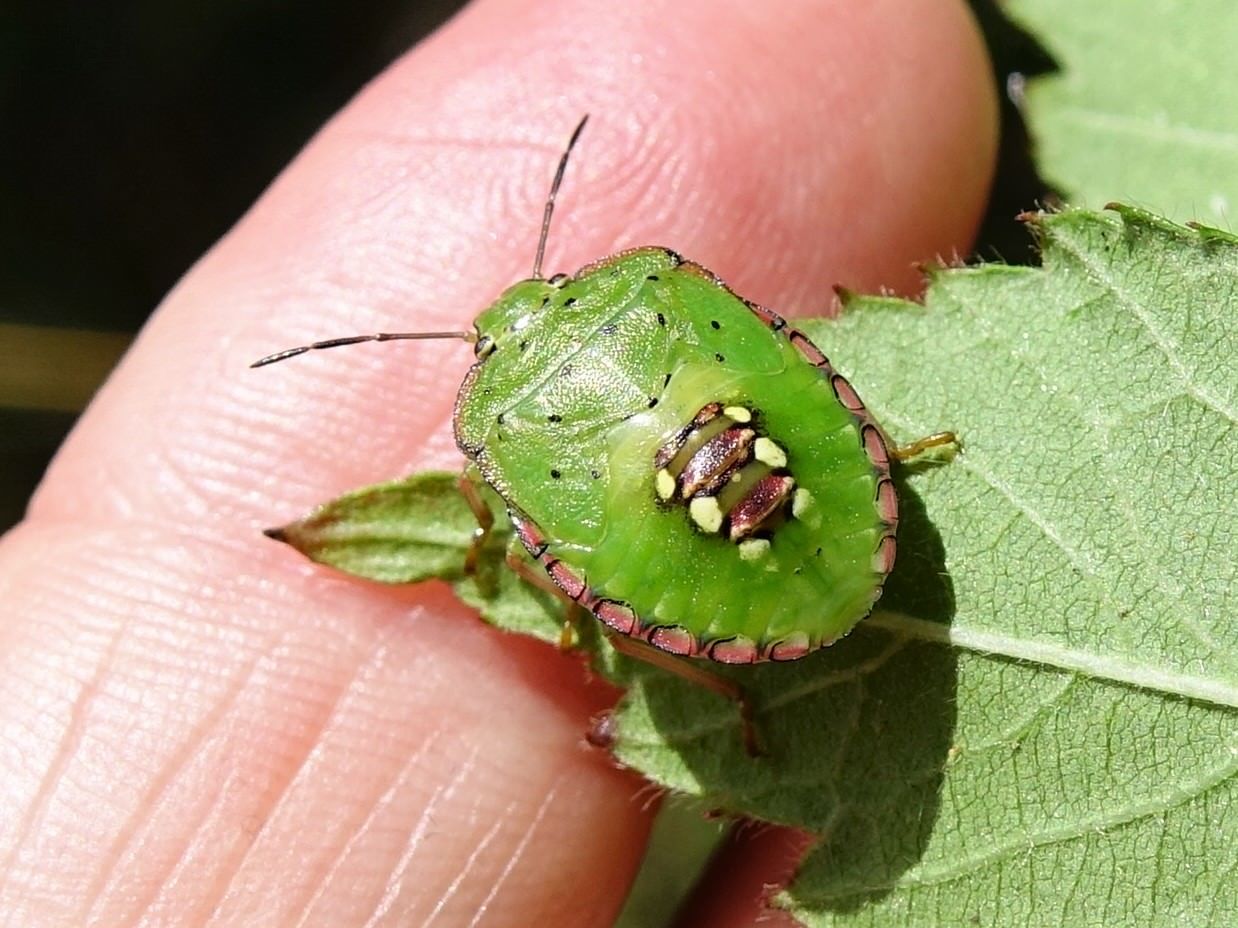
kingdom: Animalia
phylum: Arthropoda
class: Insecta
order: Hemiptera
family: Pentatomidae
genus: Nezara
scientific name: Nezara viridula
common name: Southern green stink bug
